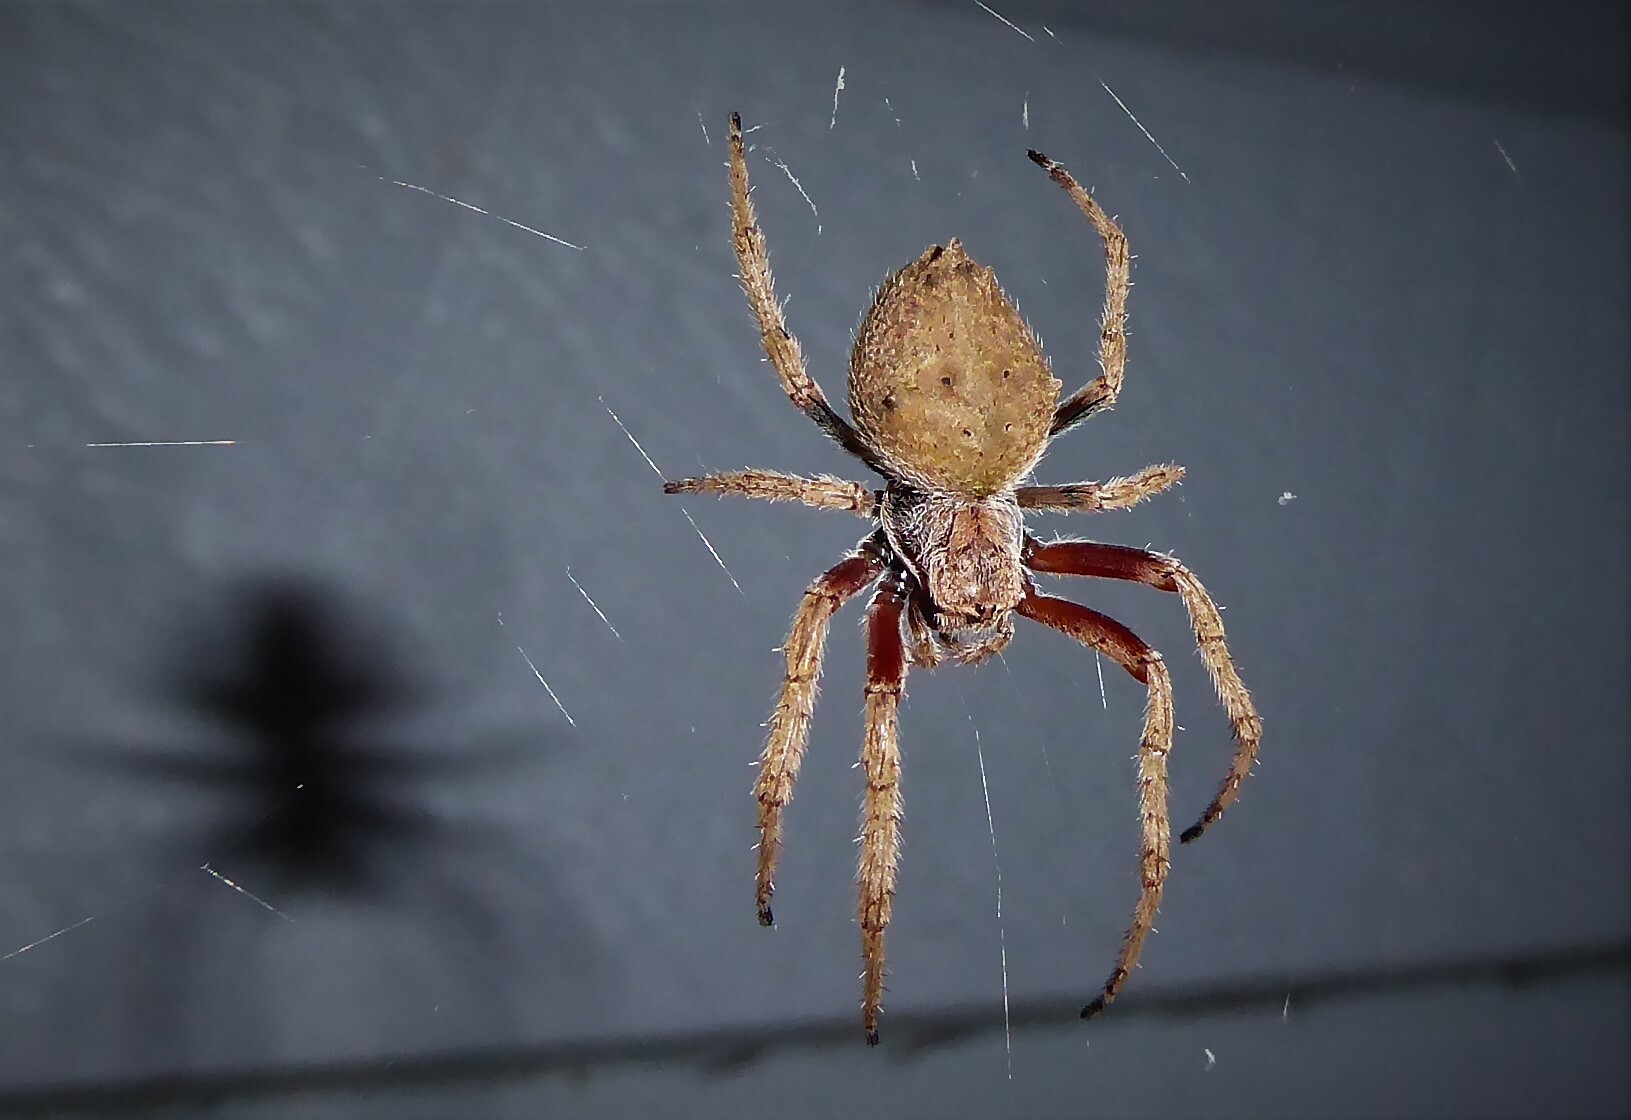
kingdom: Animalia
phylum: Arthropoda
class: Arachnida
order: Araneae
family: Araneidae
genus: Eriophora
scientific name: Eriophora pustulosa
